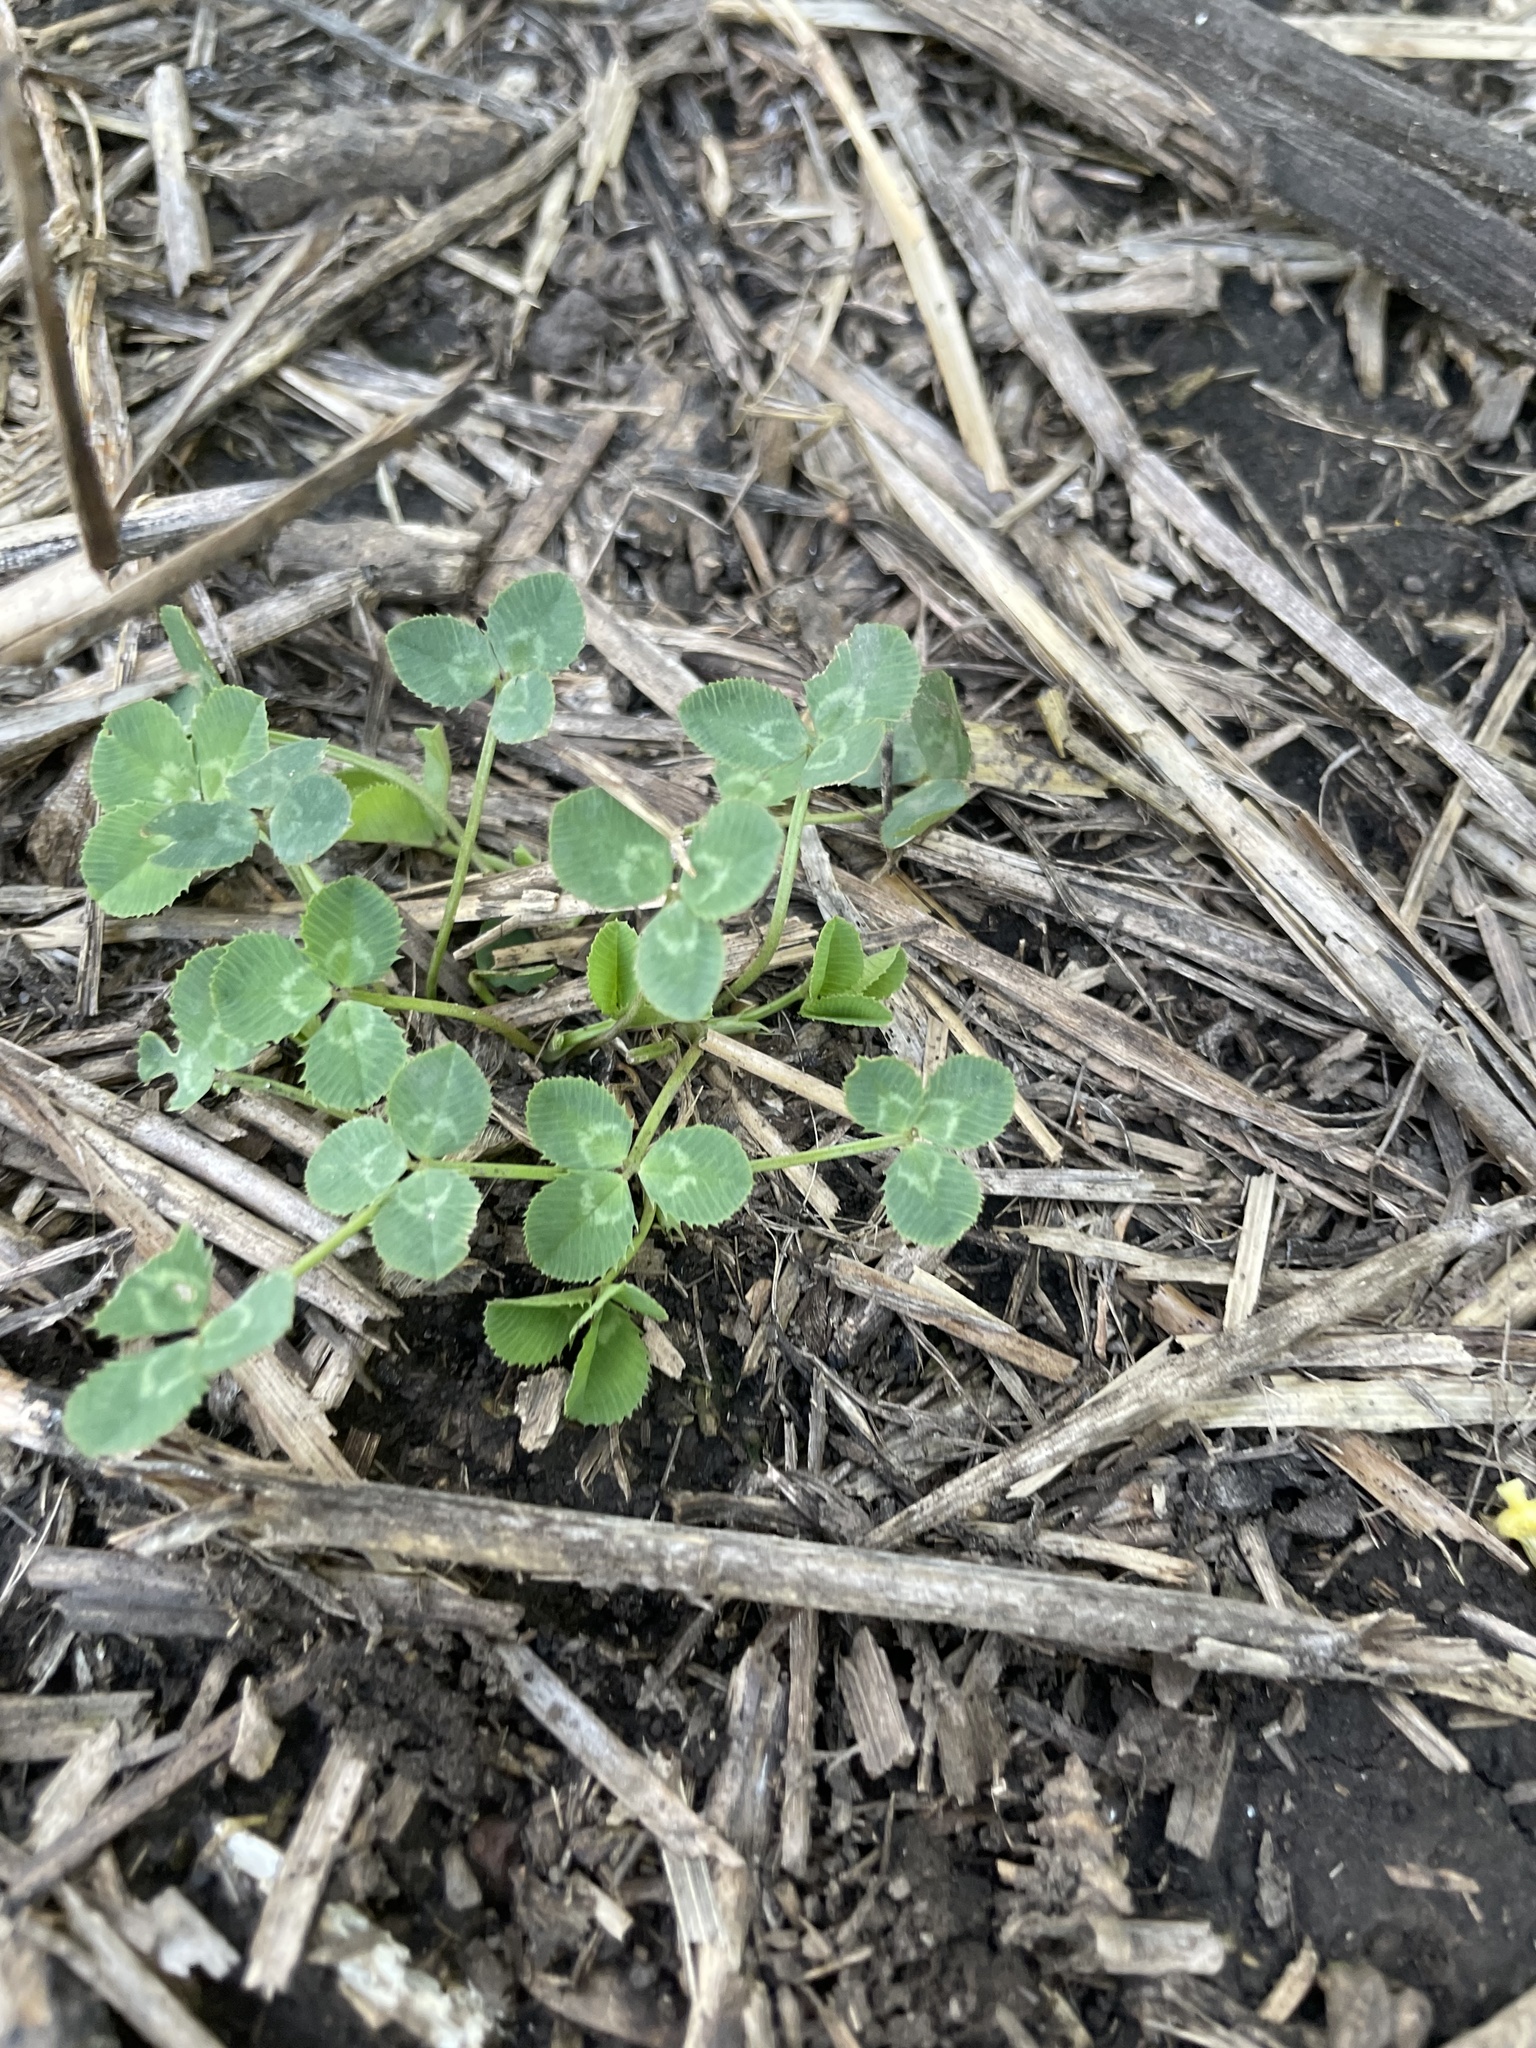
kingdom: Plantae
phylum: Tracheophyta
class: Magnoliopsida
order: Fabales
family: Fabaceae
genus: Trifolium
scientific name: Trifolium repens
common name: White clover
